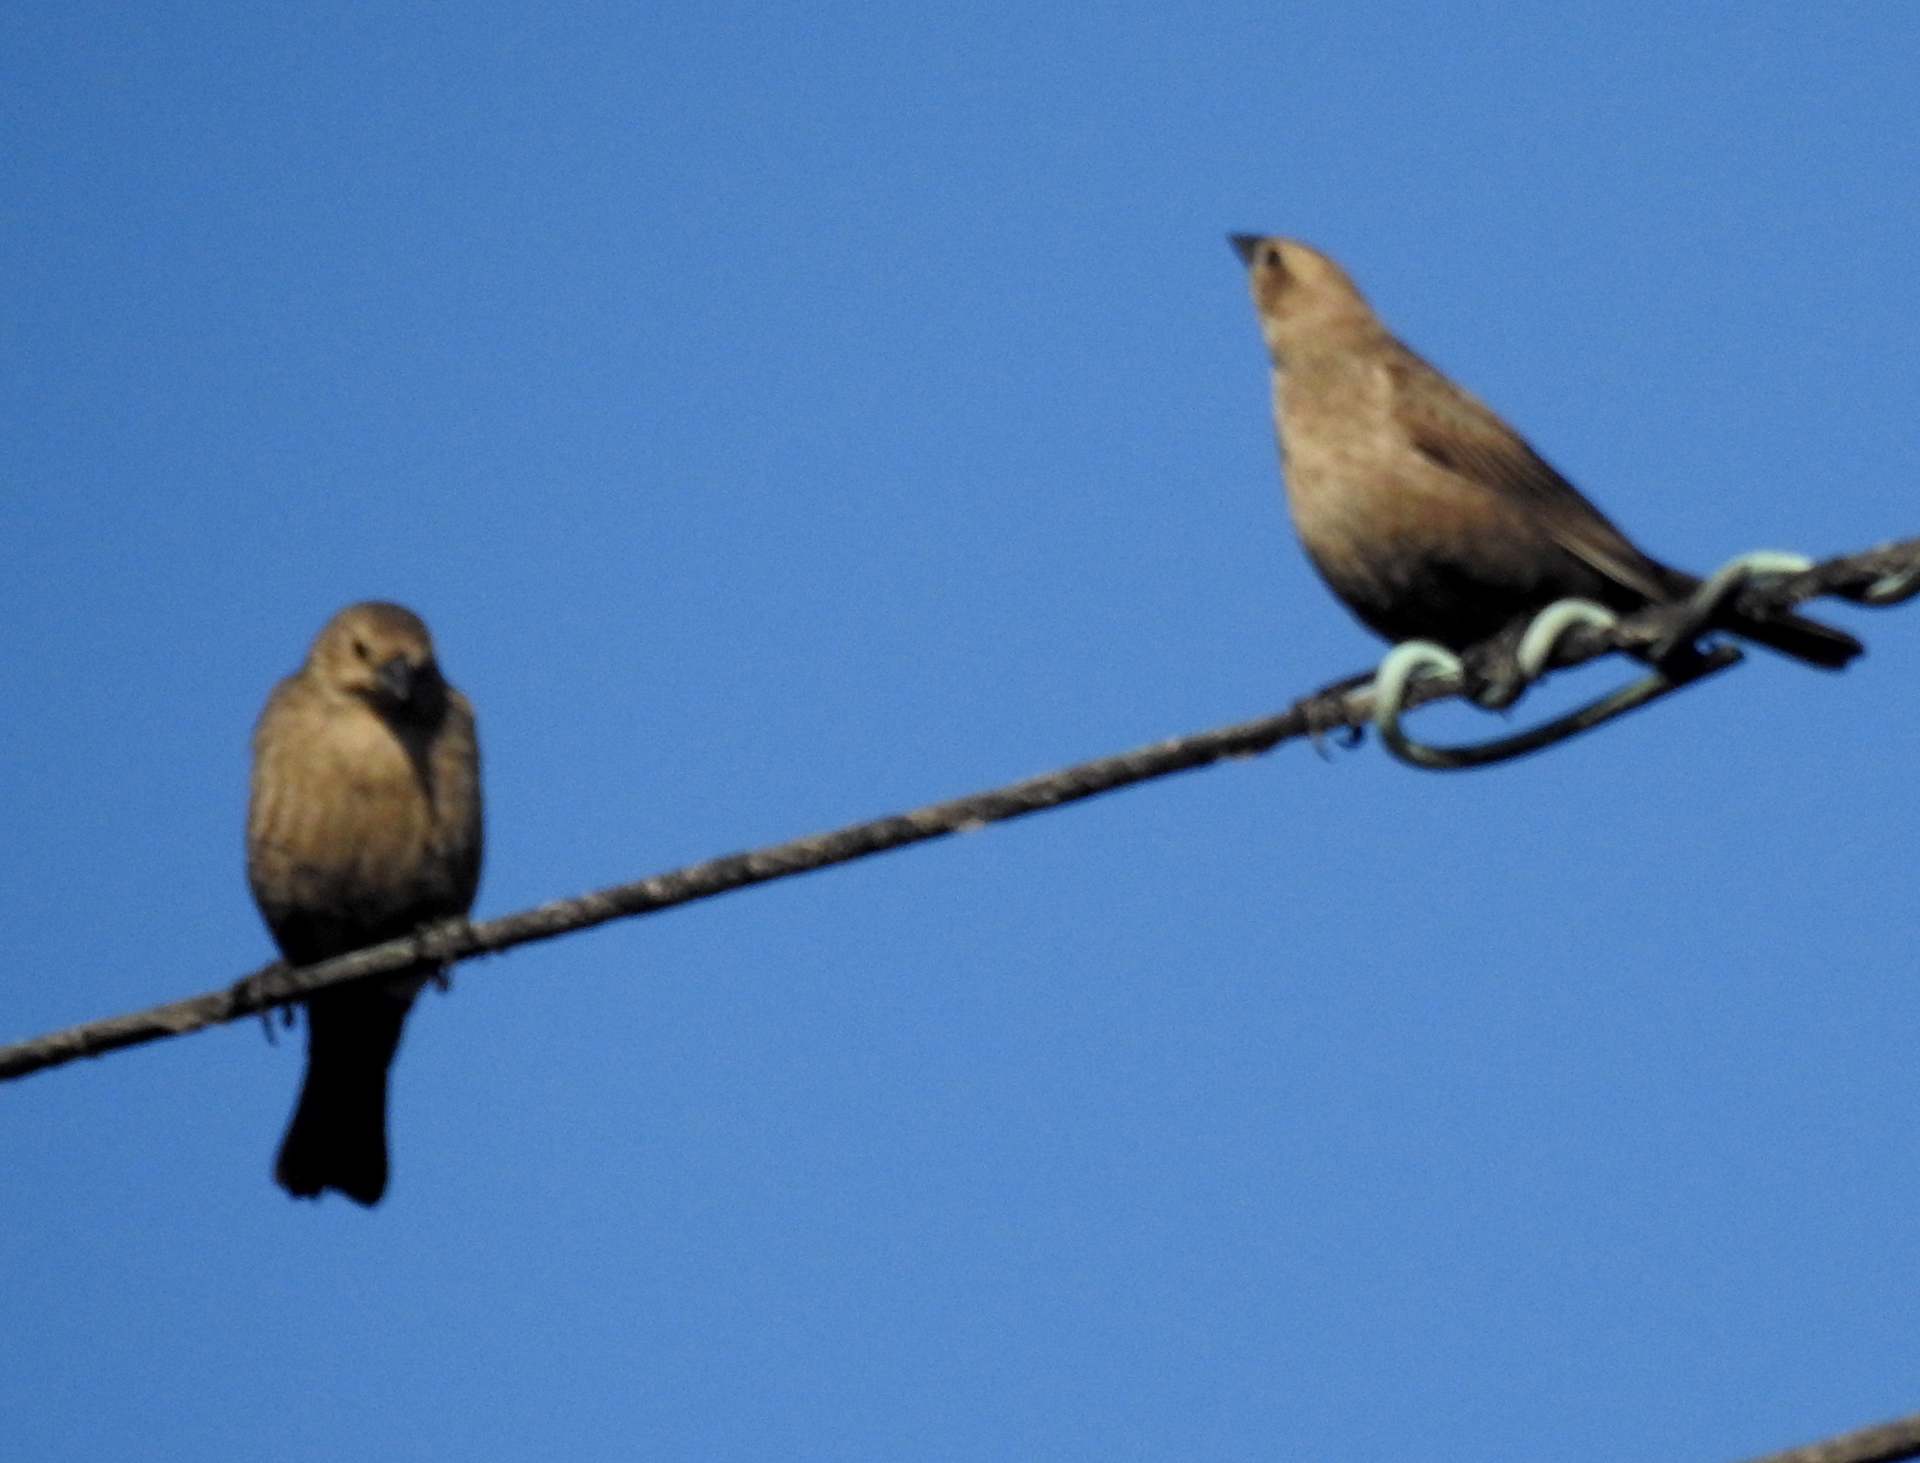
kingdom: Animalia
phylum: Chordata
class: Aves
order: Passeriformes
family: Icteridae
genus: Molothrus
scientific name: Molothrus ater
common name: Brown-headed cowbird
